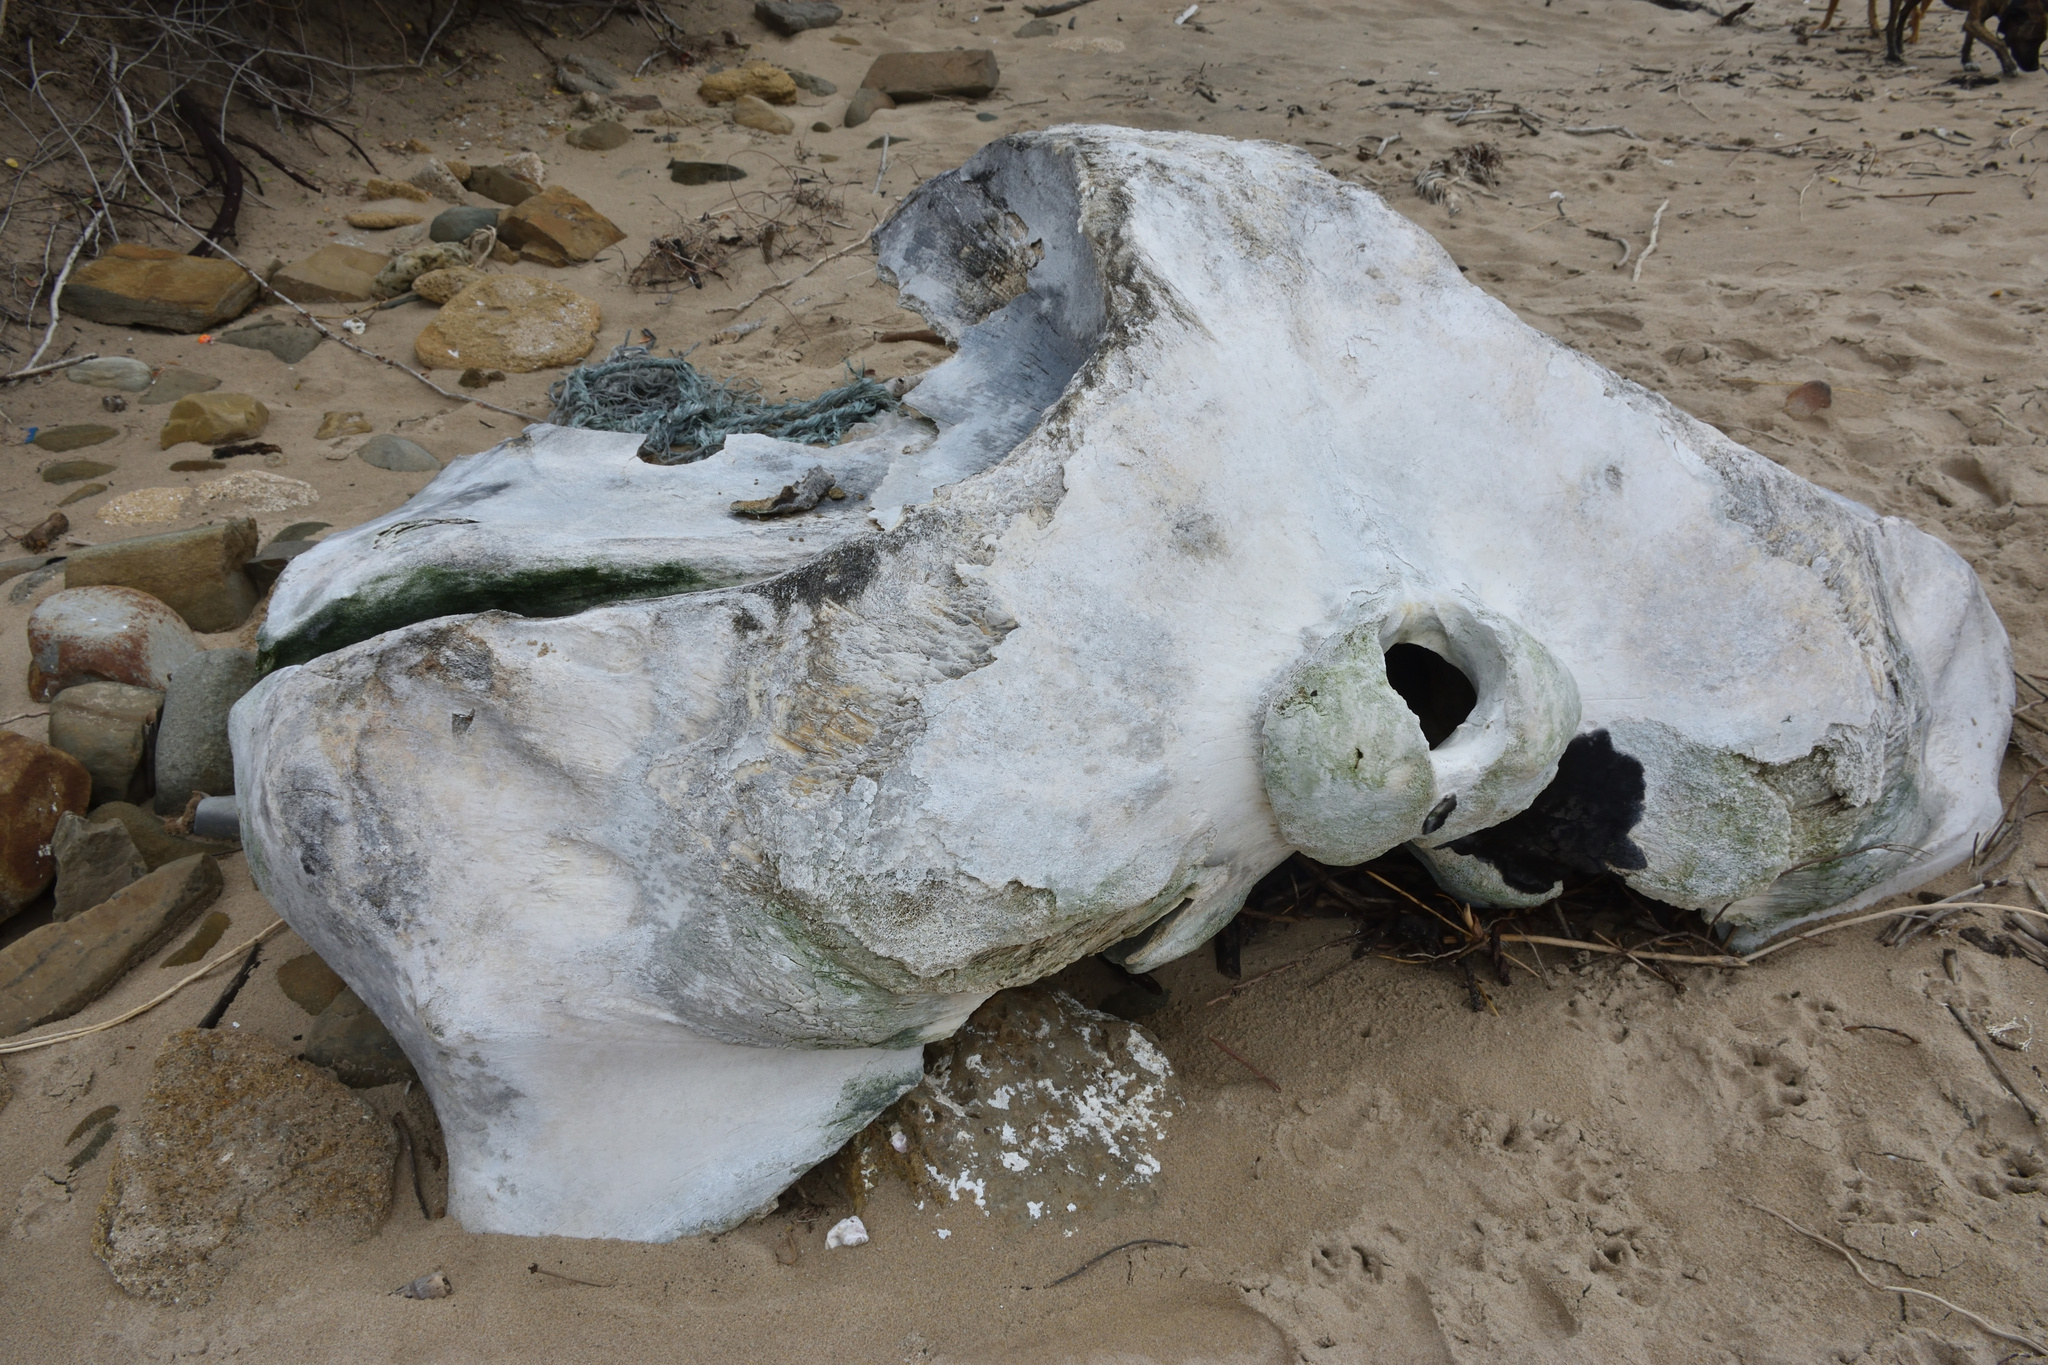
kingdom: Animalia
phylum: Chordata
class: Mammalia
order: Cetacea
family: Balaenidae
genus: Eubalaena
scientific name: Eubalaena australis
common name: Southern right whale
